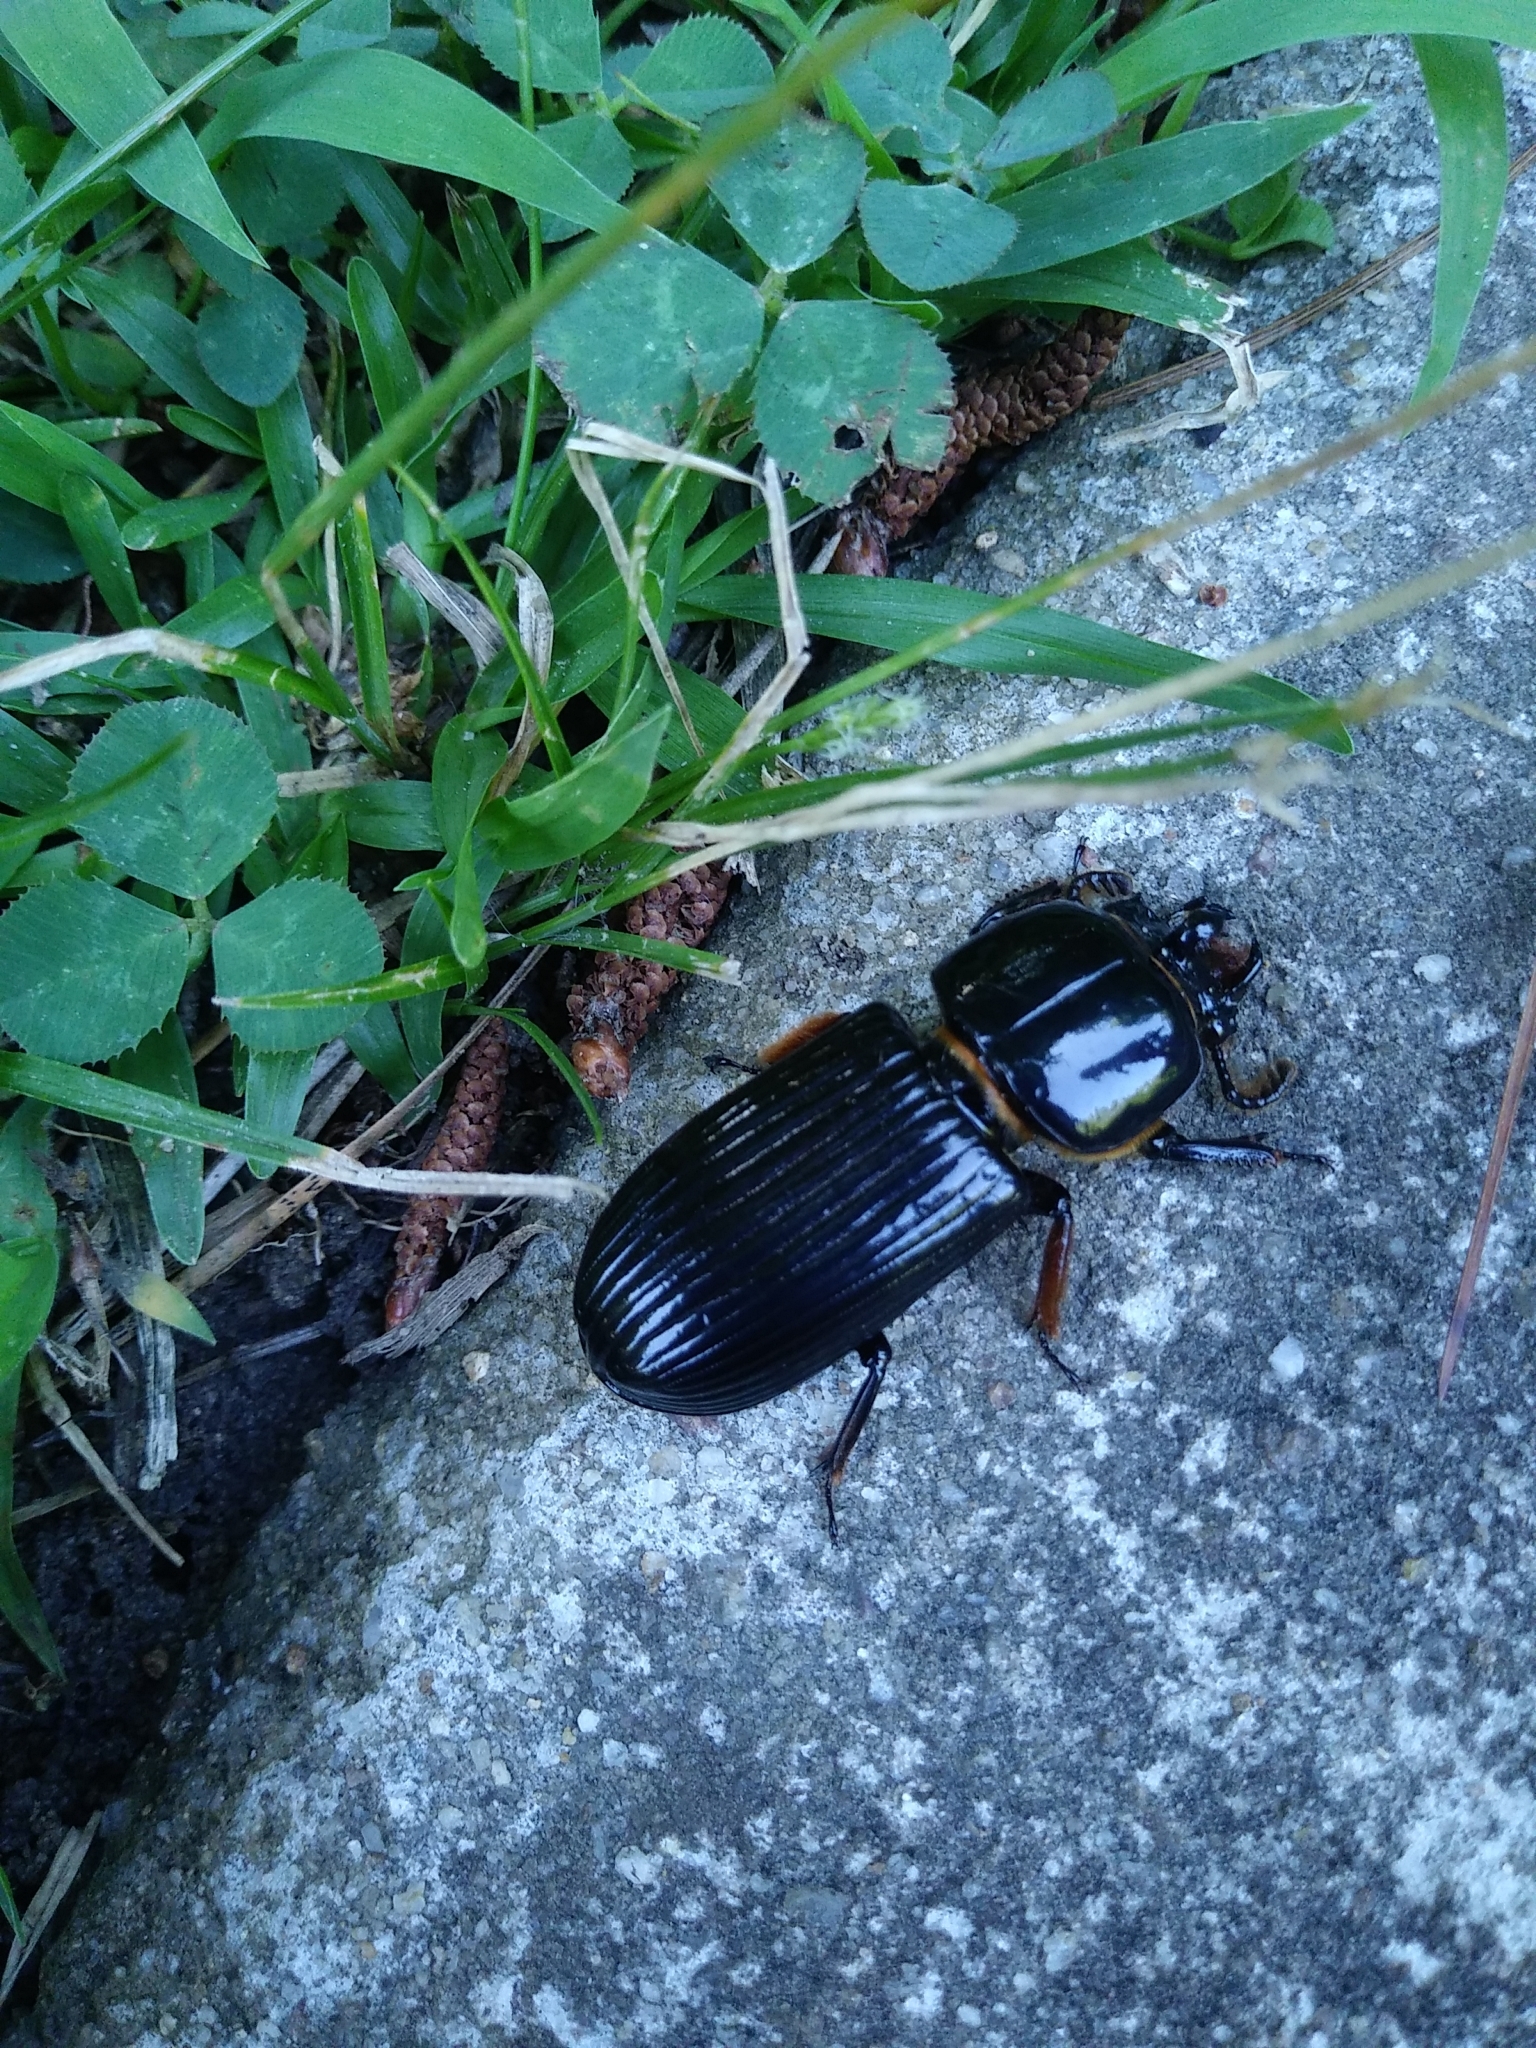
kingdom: Animalia
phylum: Arthropoda
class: Insecta
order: Coleoptera
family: Passalidae
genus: Odontotaenius
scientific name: Odontotaenius disjunctus
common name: Patent leather beetle
